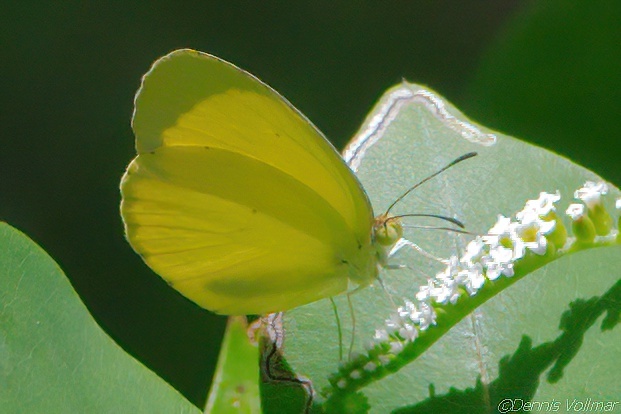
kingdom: Animalia
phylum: Arthropoda
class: Insecta
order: Lepidoptera
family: Pieridae
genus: Pyrisitia
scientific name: Pyrisitia nise
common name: Mimosa yellow
